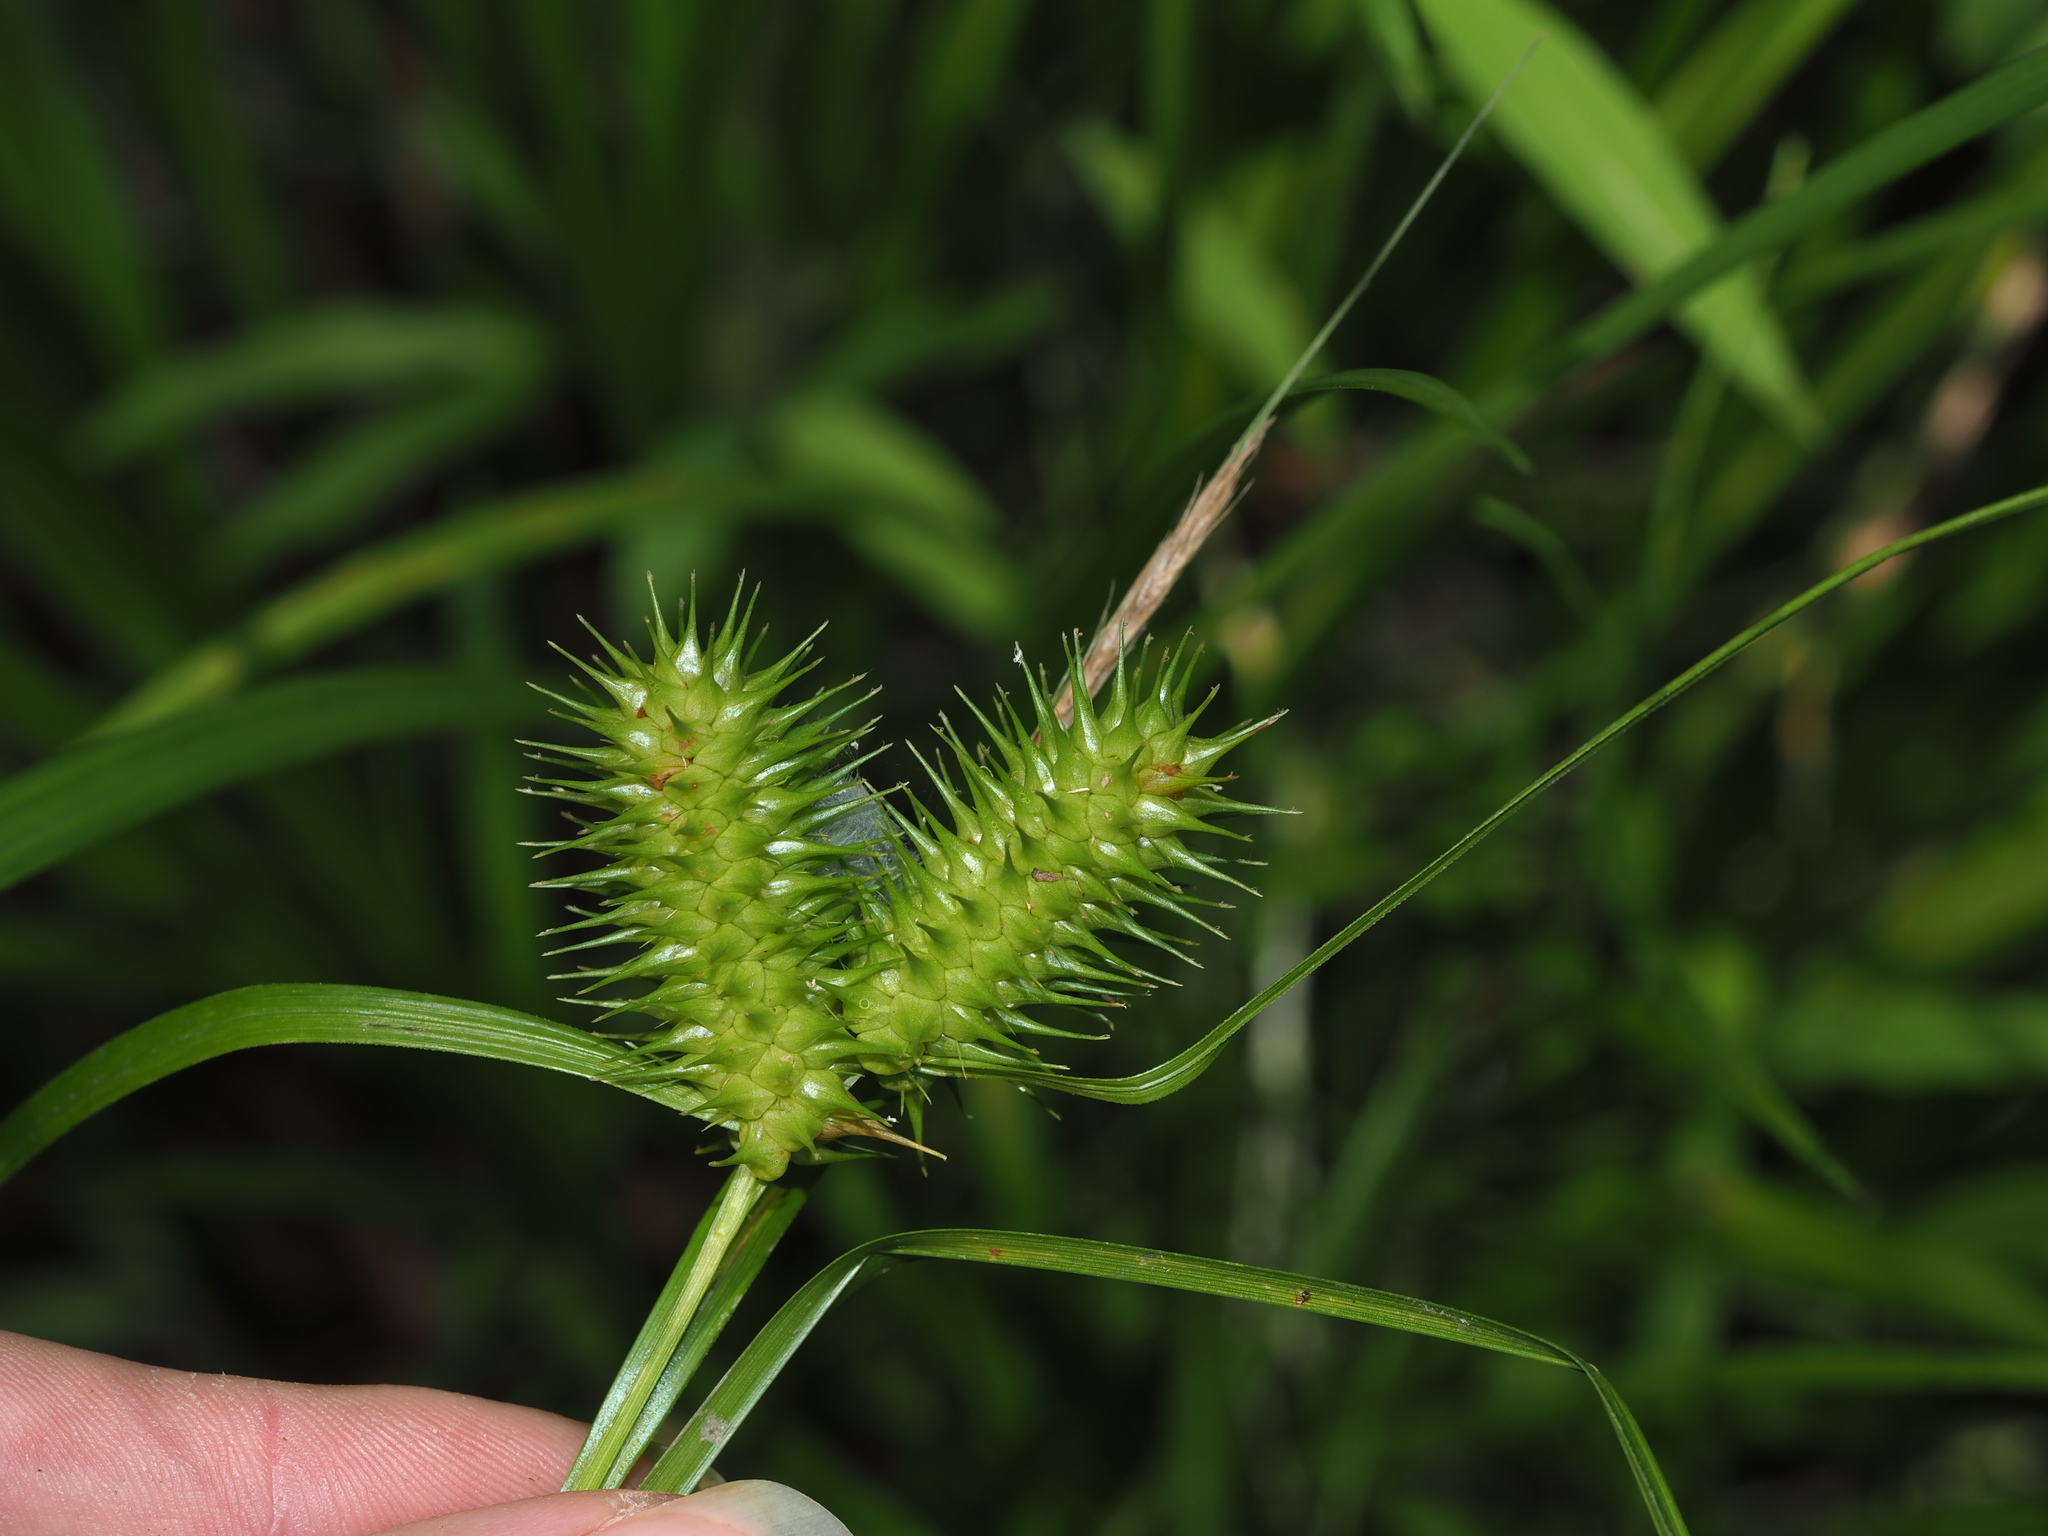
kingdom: Plantae
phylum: Tracheophyta
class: Liliopsida
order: Poales
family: Cyperaceae
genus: Carex
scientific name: Carex lurida
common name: Sallow sedge
